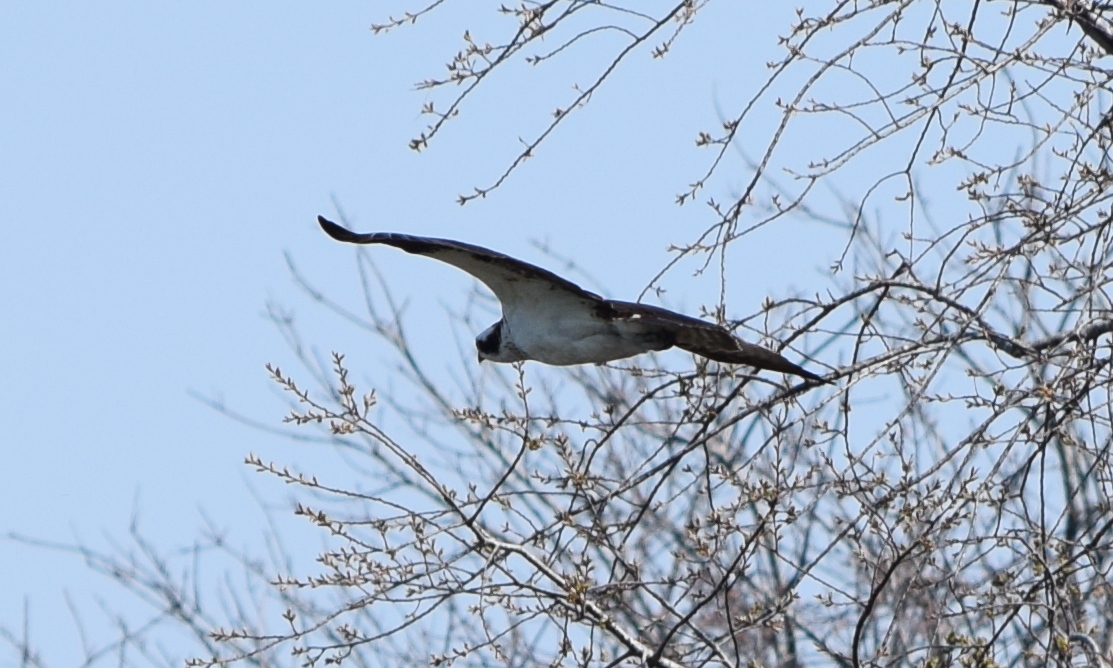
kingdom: Animalia
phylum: Chordata
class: Aves
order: Accipitriformes
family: Pandionidae
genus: Pandion
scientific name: Pandion haliaetus
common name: Osprey
